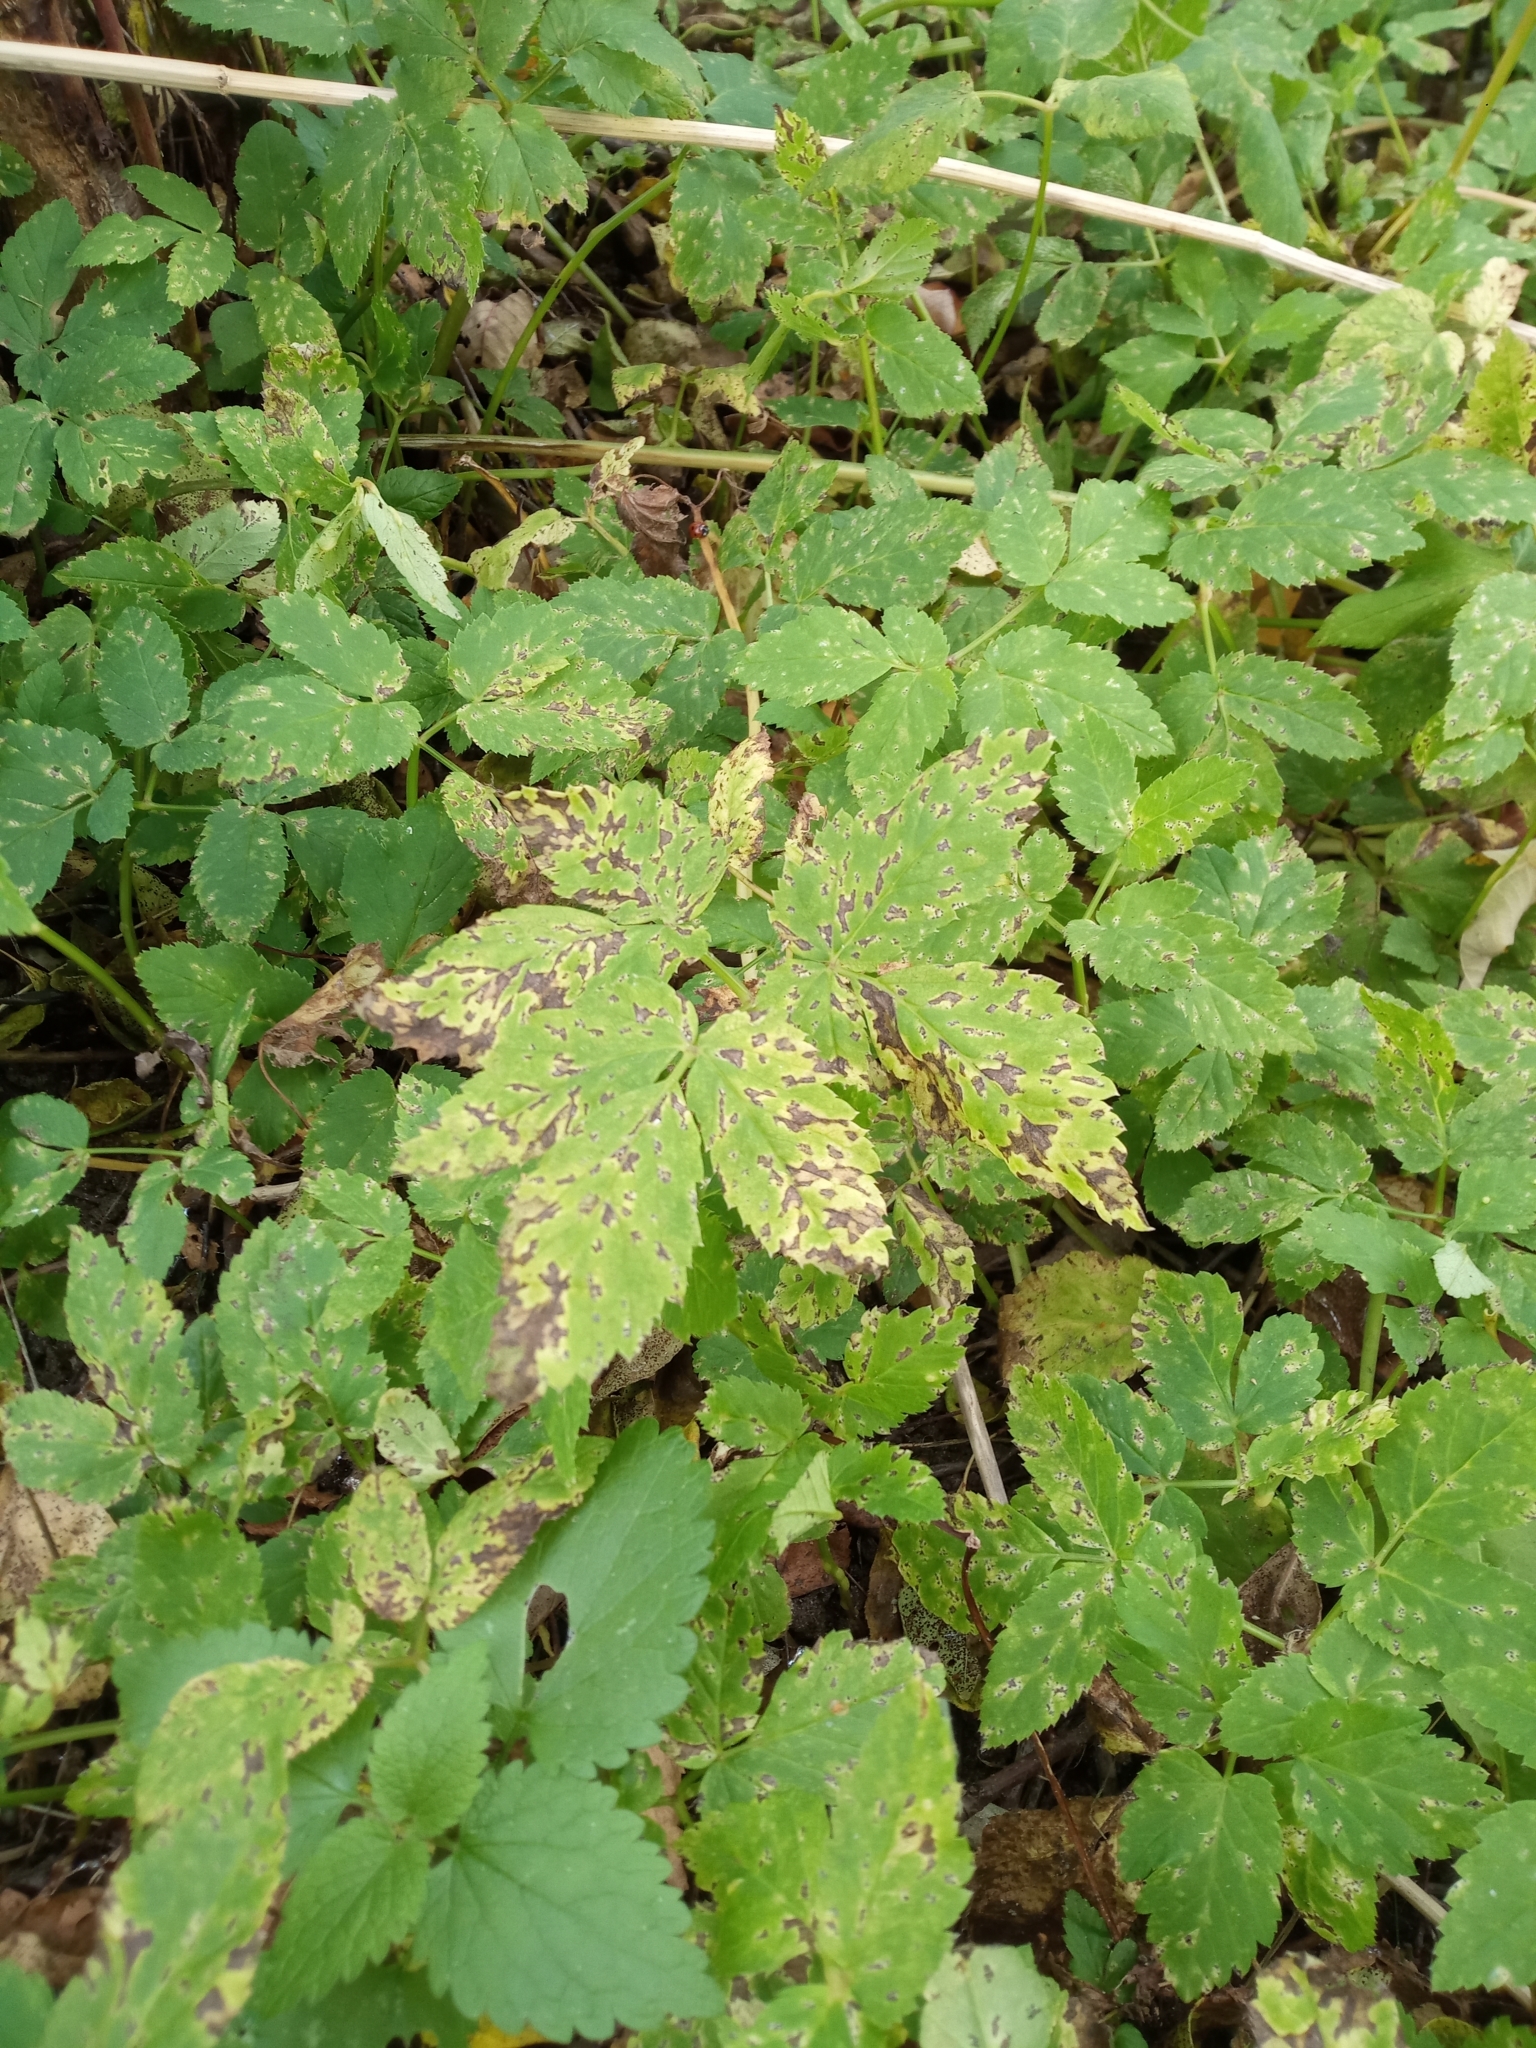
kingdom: Plantae
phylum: Tracheophyta
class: Magnoliopsida
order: Apiales
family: Apiaceae
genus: Aegopodium
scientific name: Aegopodium podagraria
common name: Ground-elder
